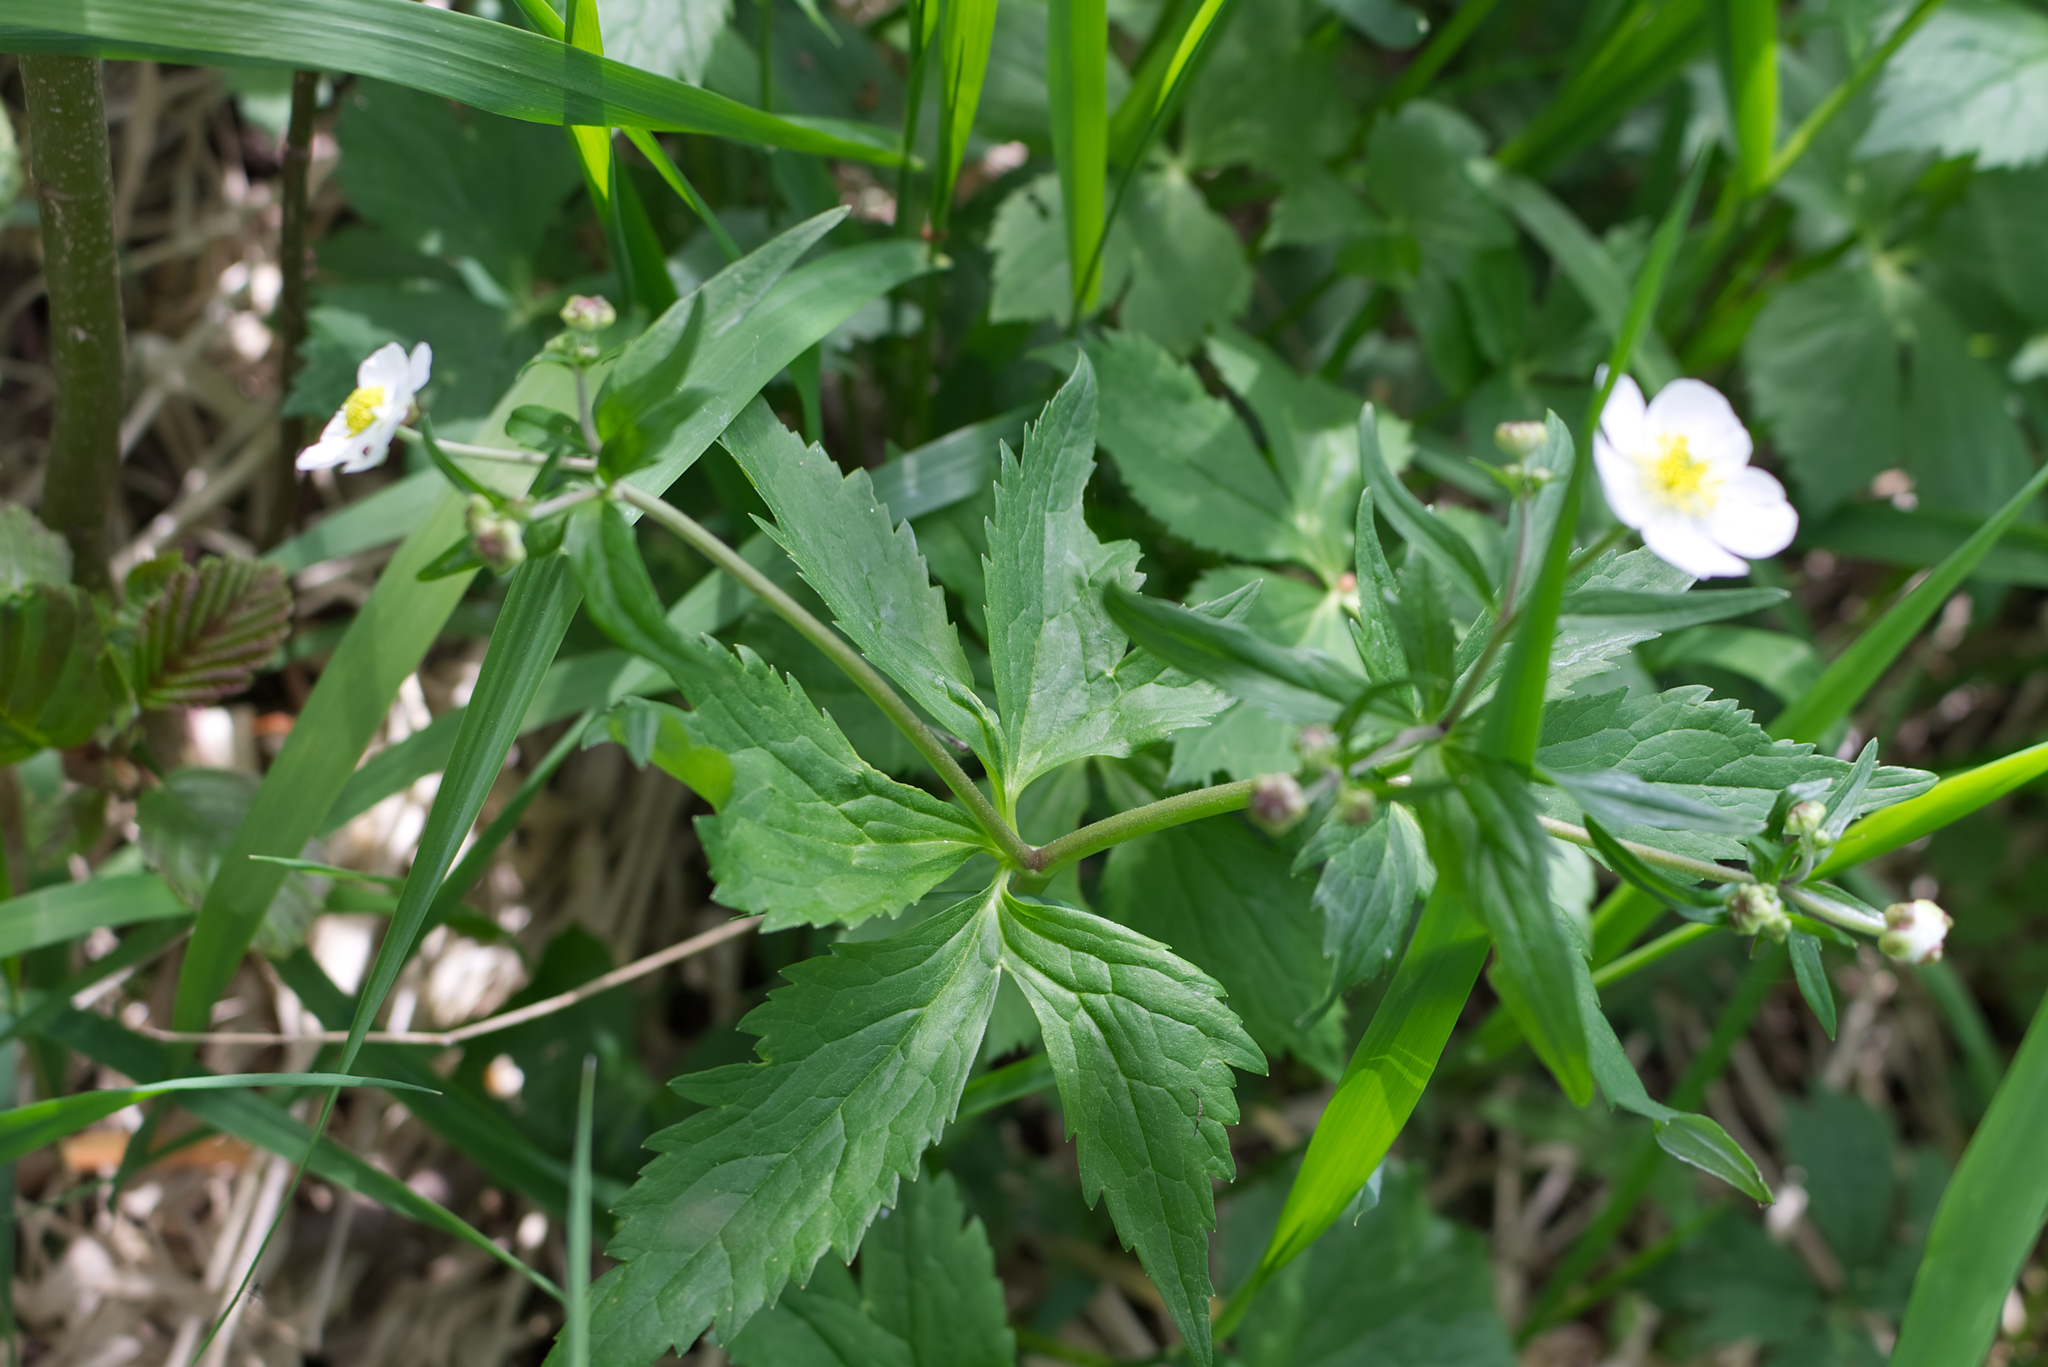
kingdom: Plantae
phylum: Tracheophyta
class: Magnoliopsida
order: Ranunculales
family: Ranunculaceae
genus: Ranunculus
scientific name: Ranunculus aconitifolius
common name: Aconite-leaved buttercup
